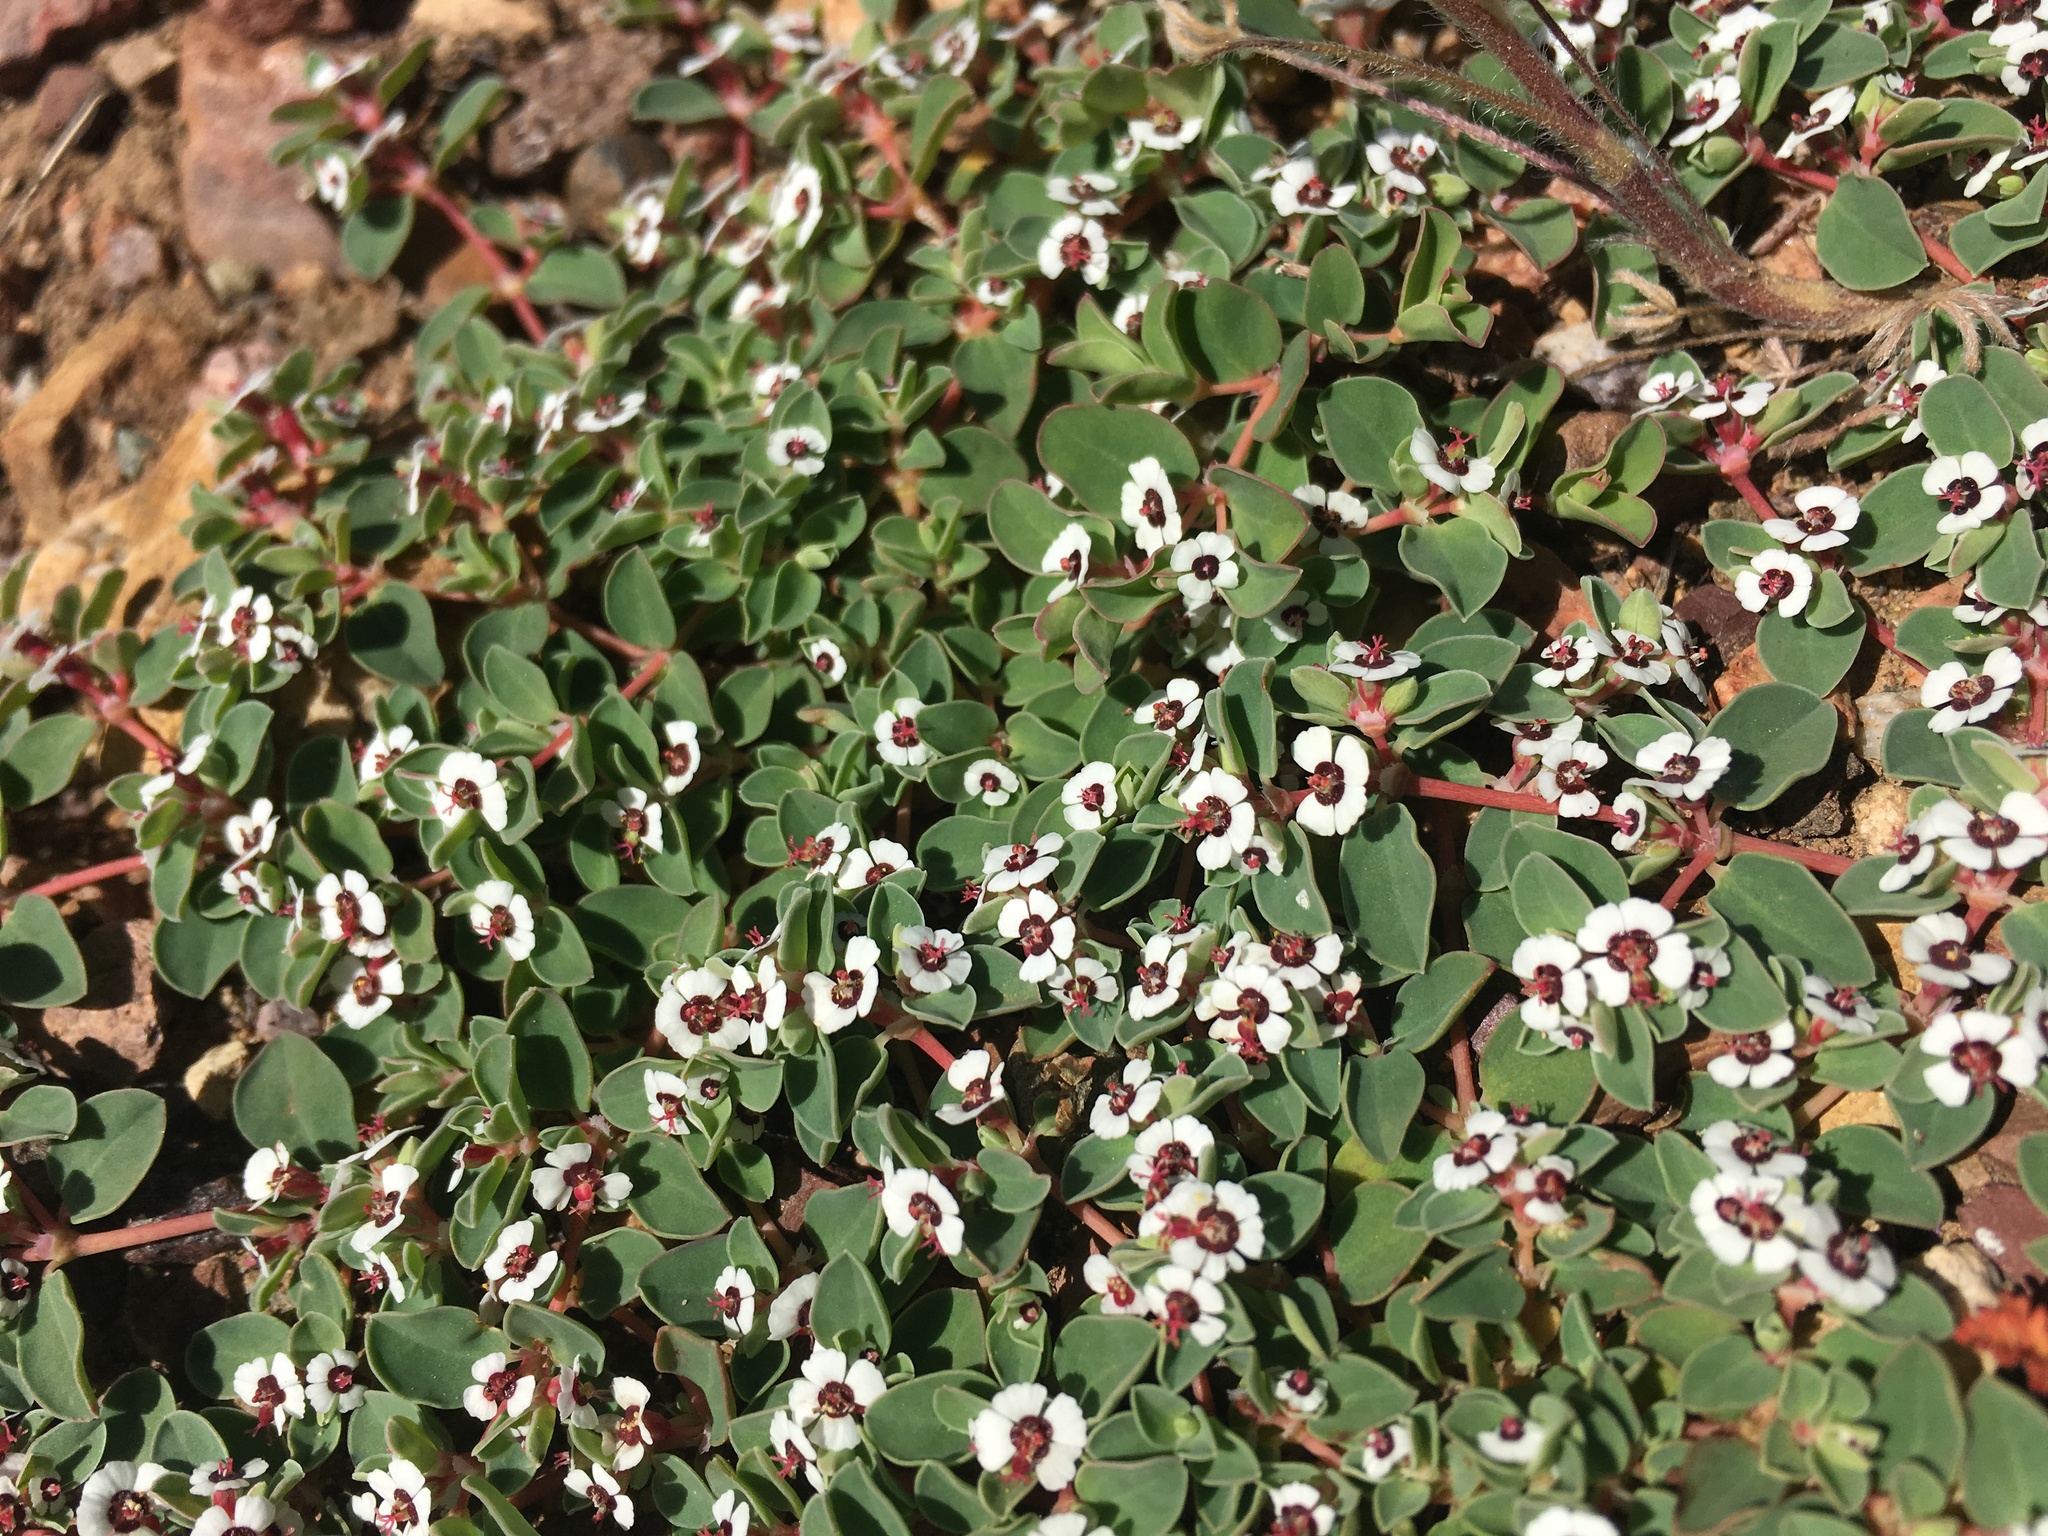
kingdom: Plantae
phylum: Tracheophyta
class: Magnoliopsida
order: Malpighiales
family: Euphorbiaceae
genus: Euphorbia
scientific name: Euphorbia albomarginata
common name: Whitemargin sandmat
